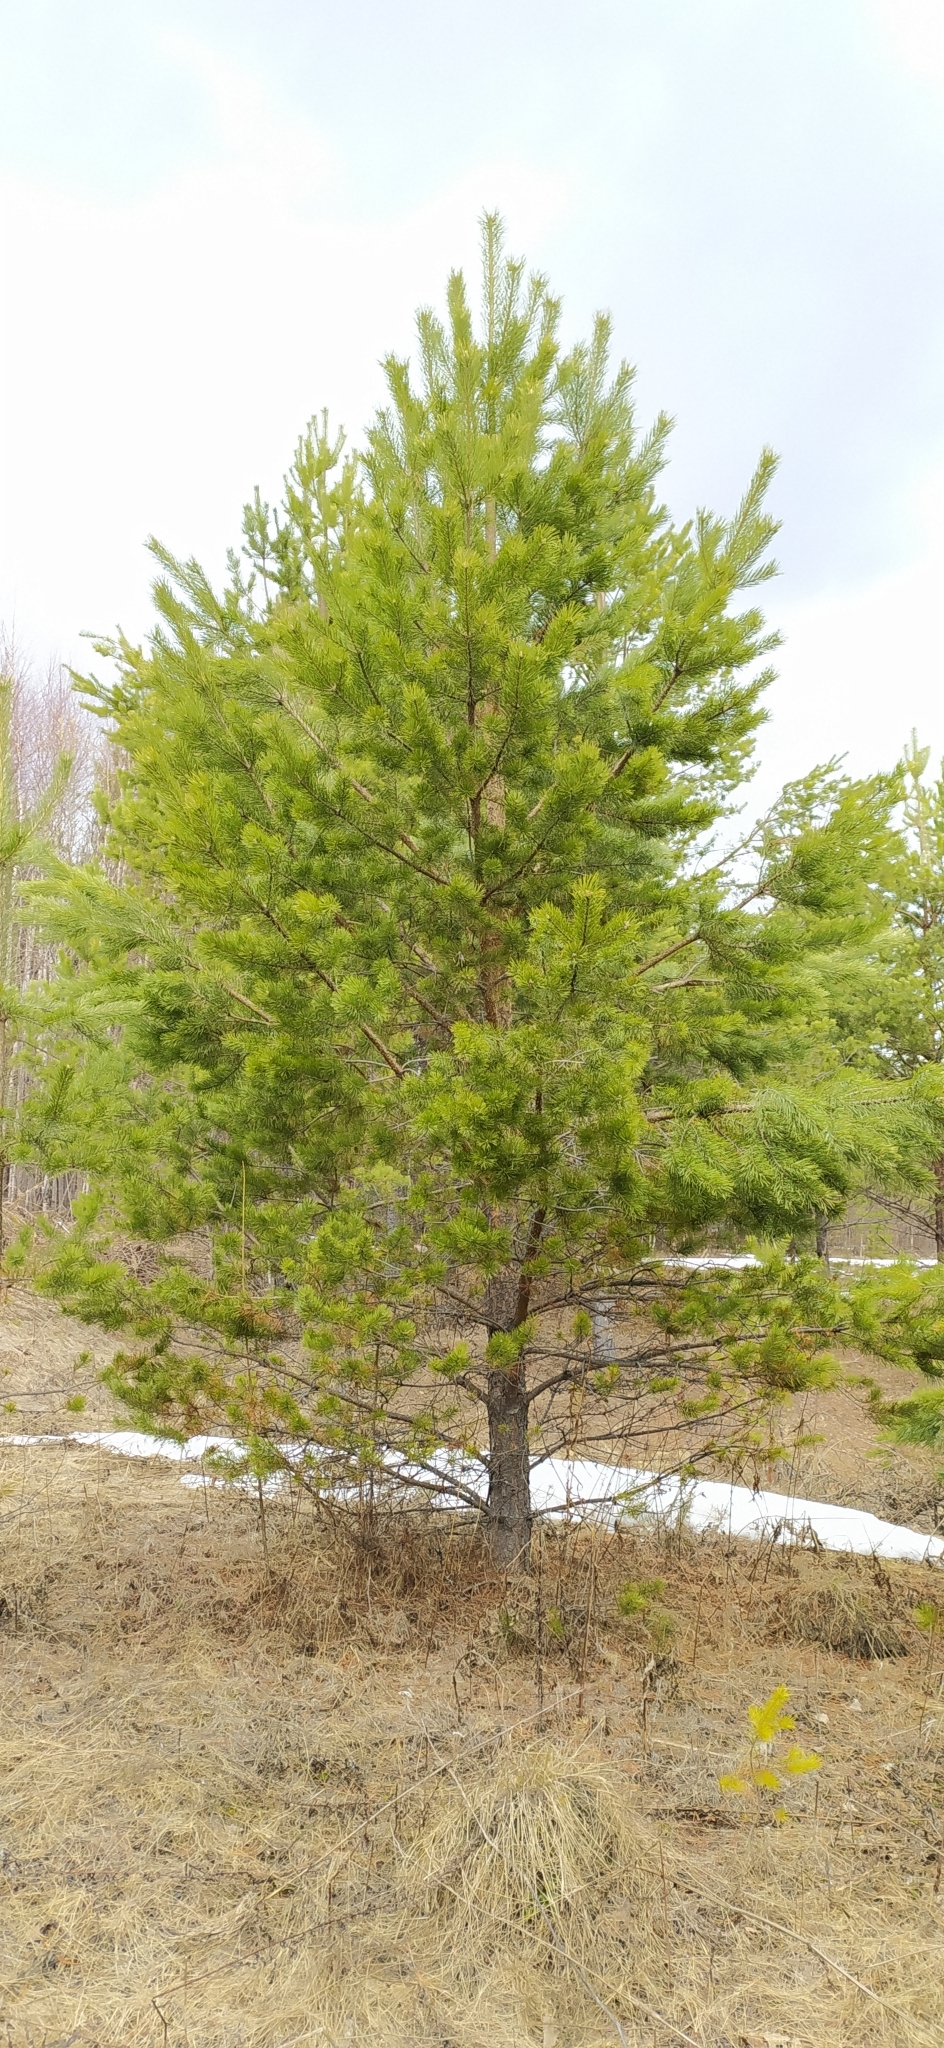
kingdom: Plantae
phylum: Tracheophyta
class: Pinopsida
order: Pinales
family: Pinaceae
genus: Pinus
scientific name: Pinus sylvestris
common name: Scots pine
